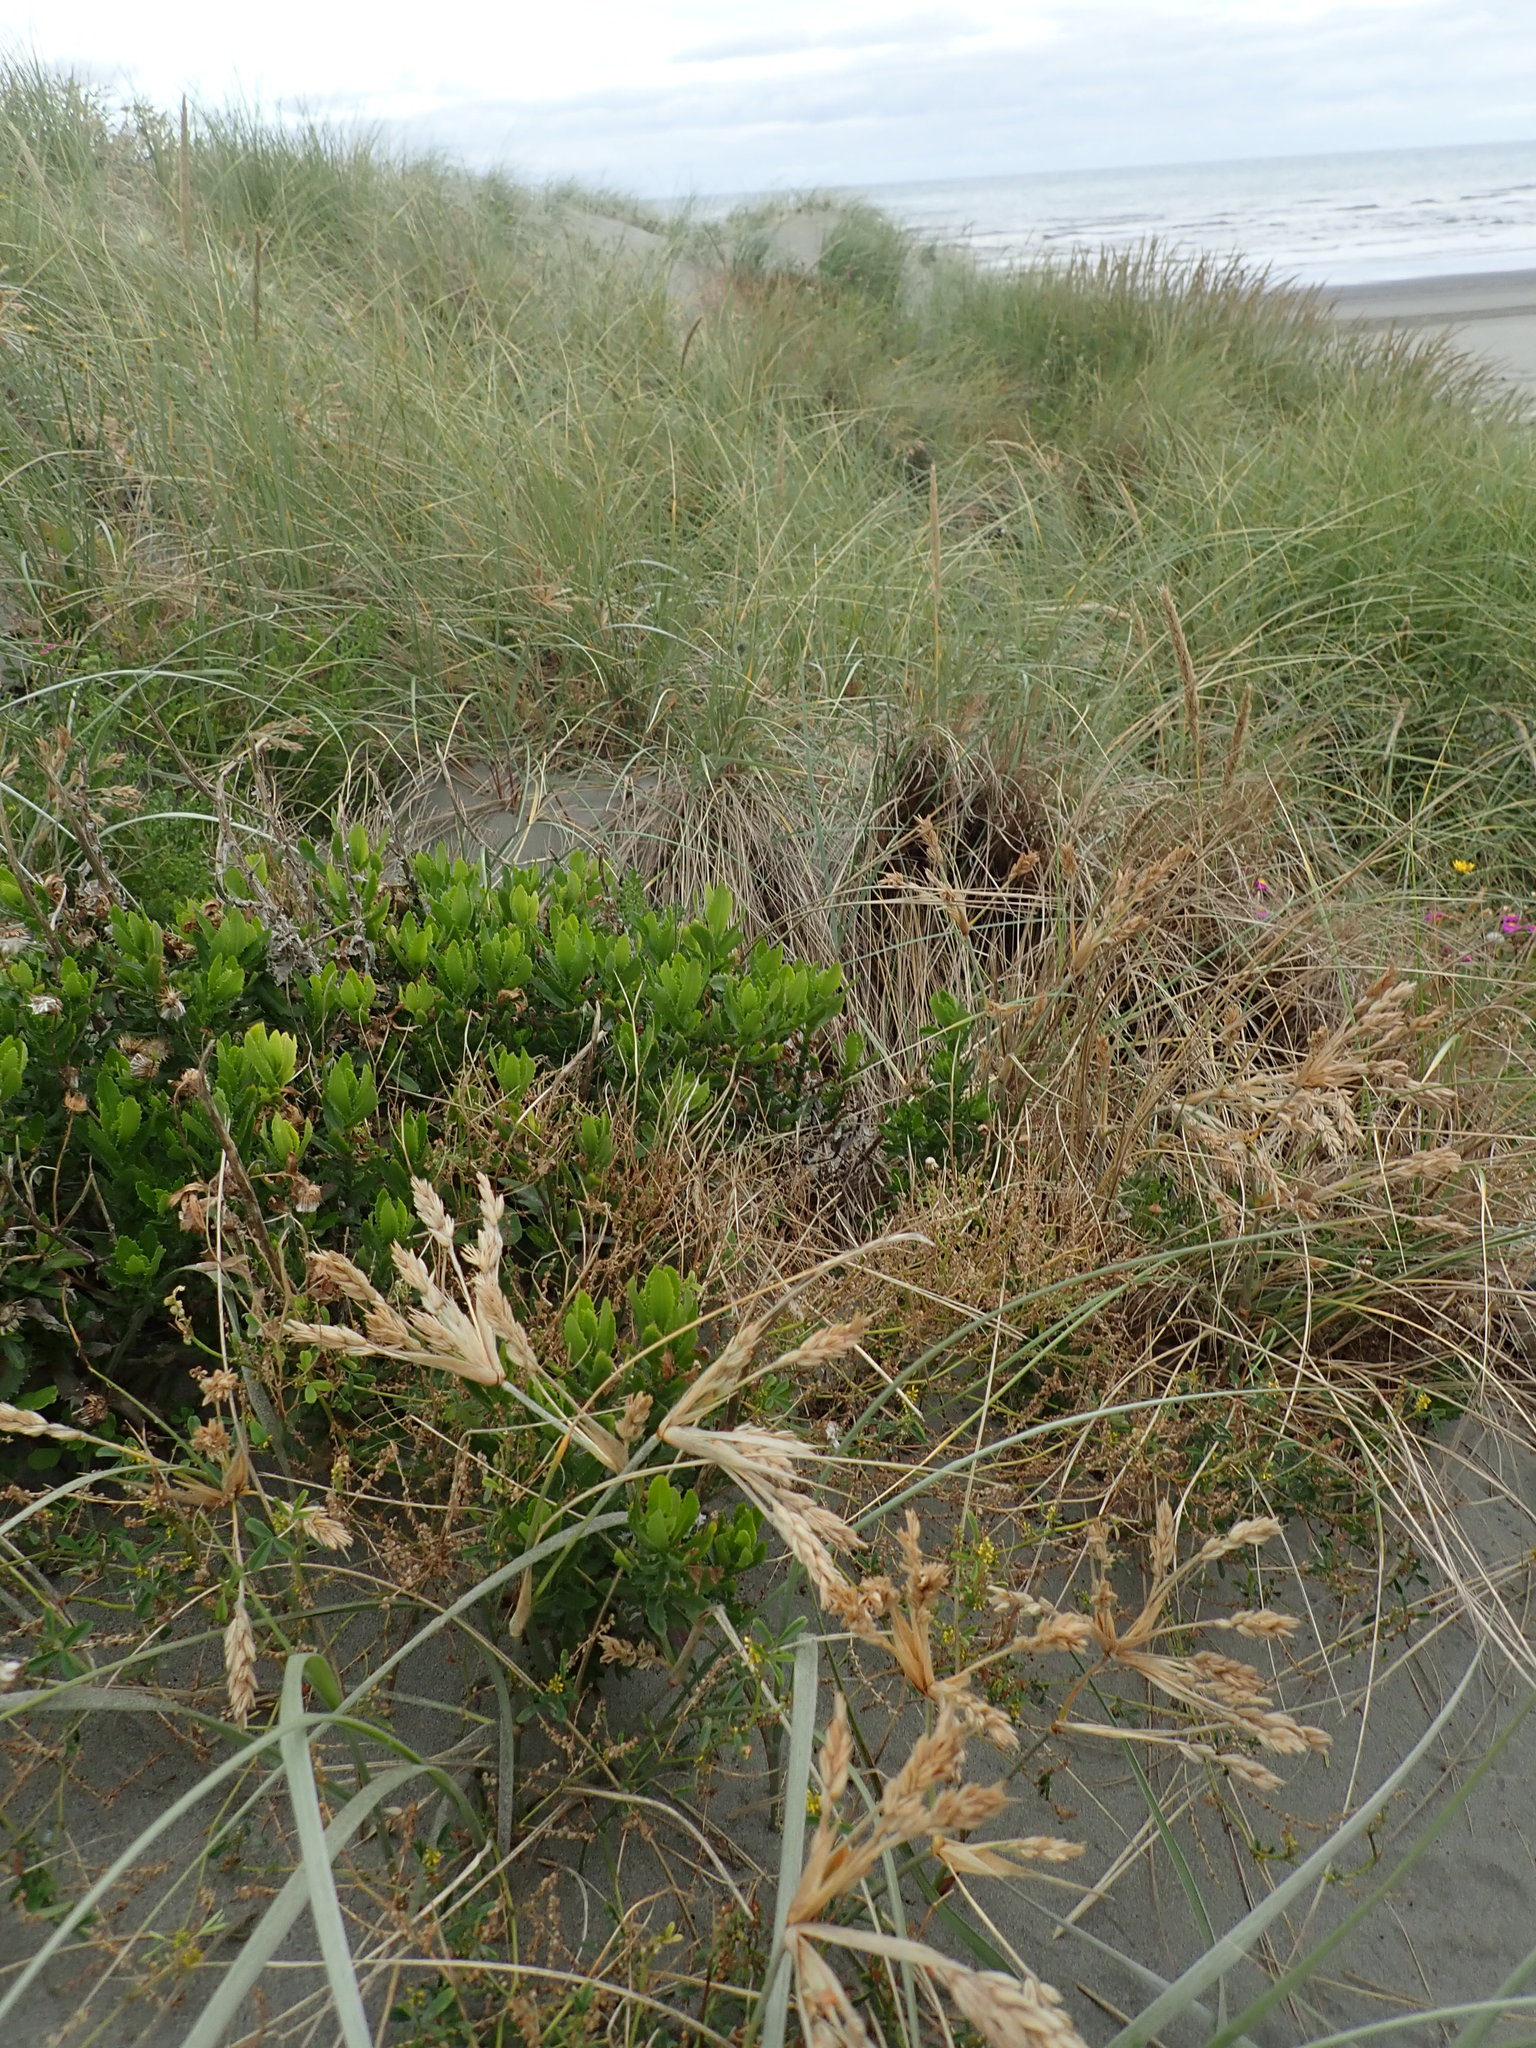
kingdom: Plantae
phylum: Tracheophyta
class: Magnoliopsida
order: Asterales
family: Asteraceae
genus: Senecio
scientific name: Senecio glastifolius
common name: Woad-leaved ragwort
